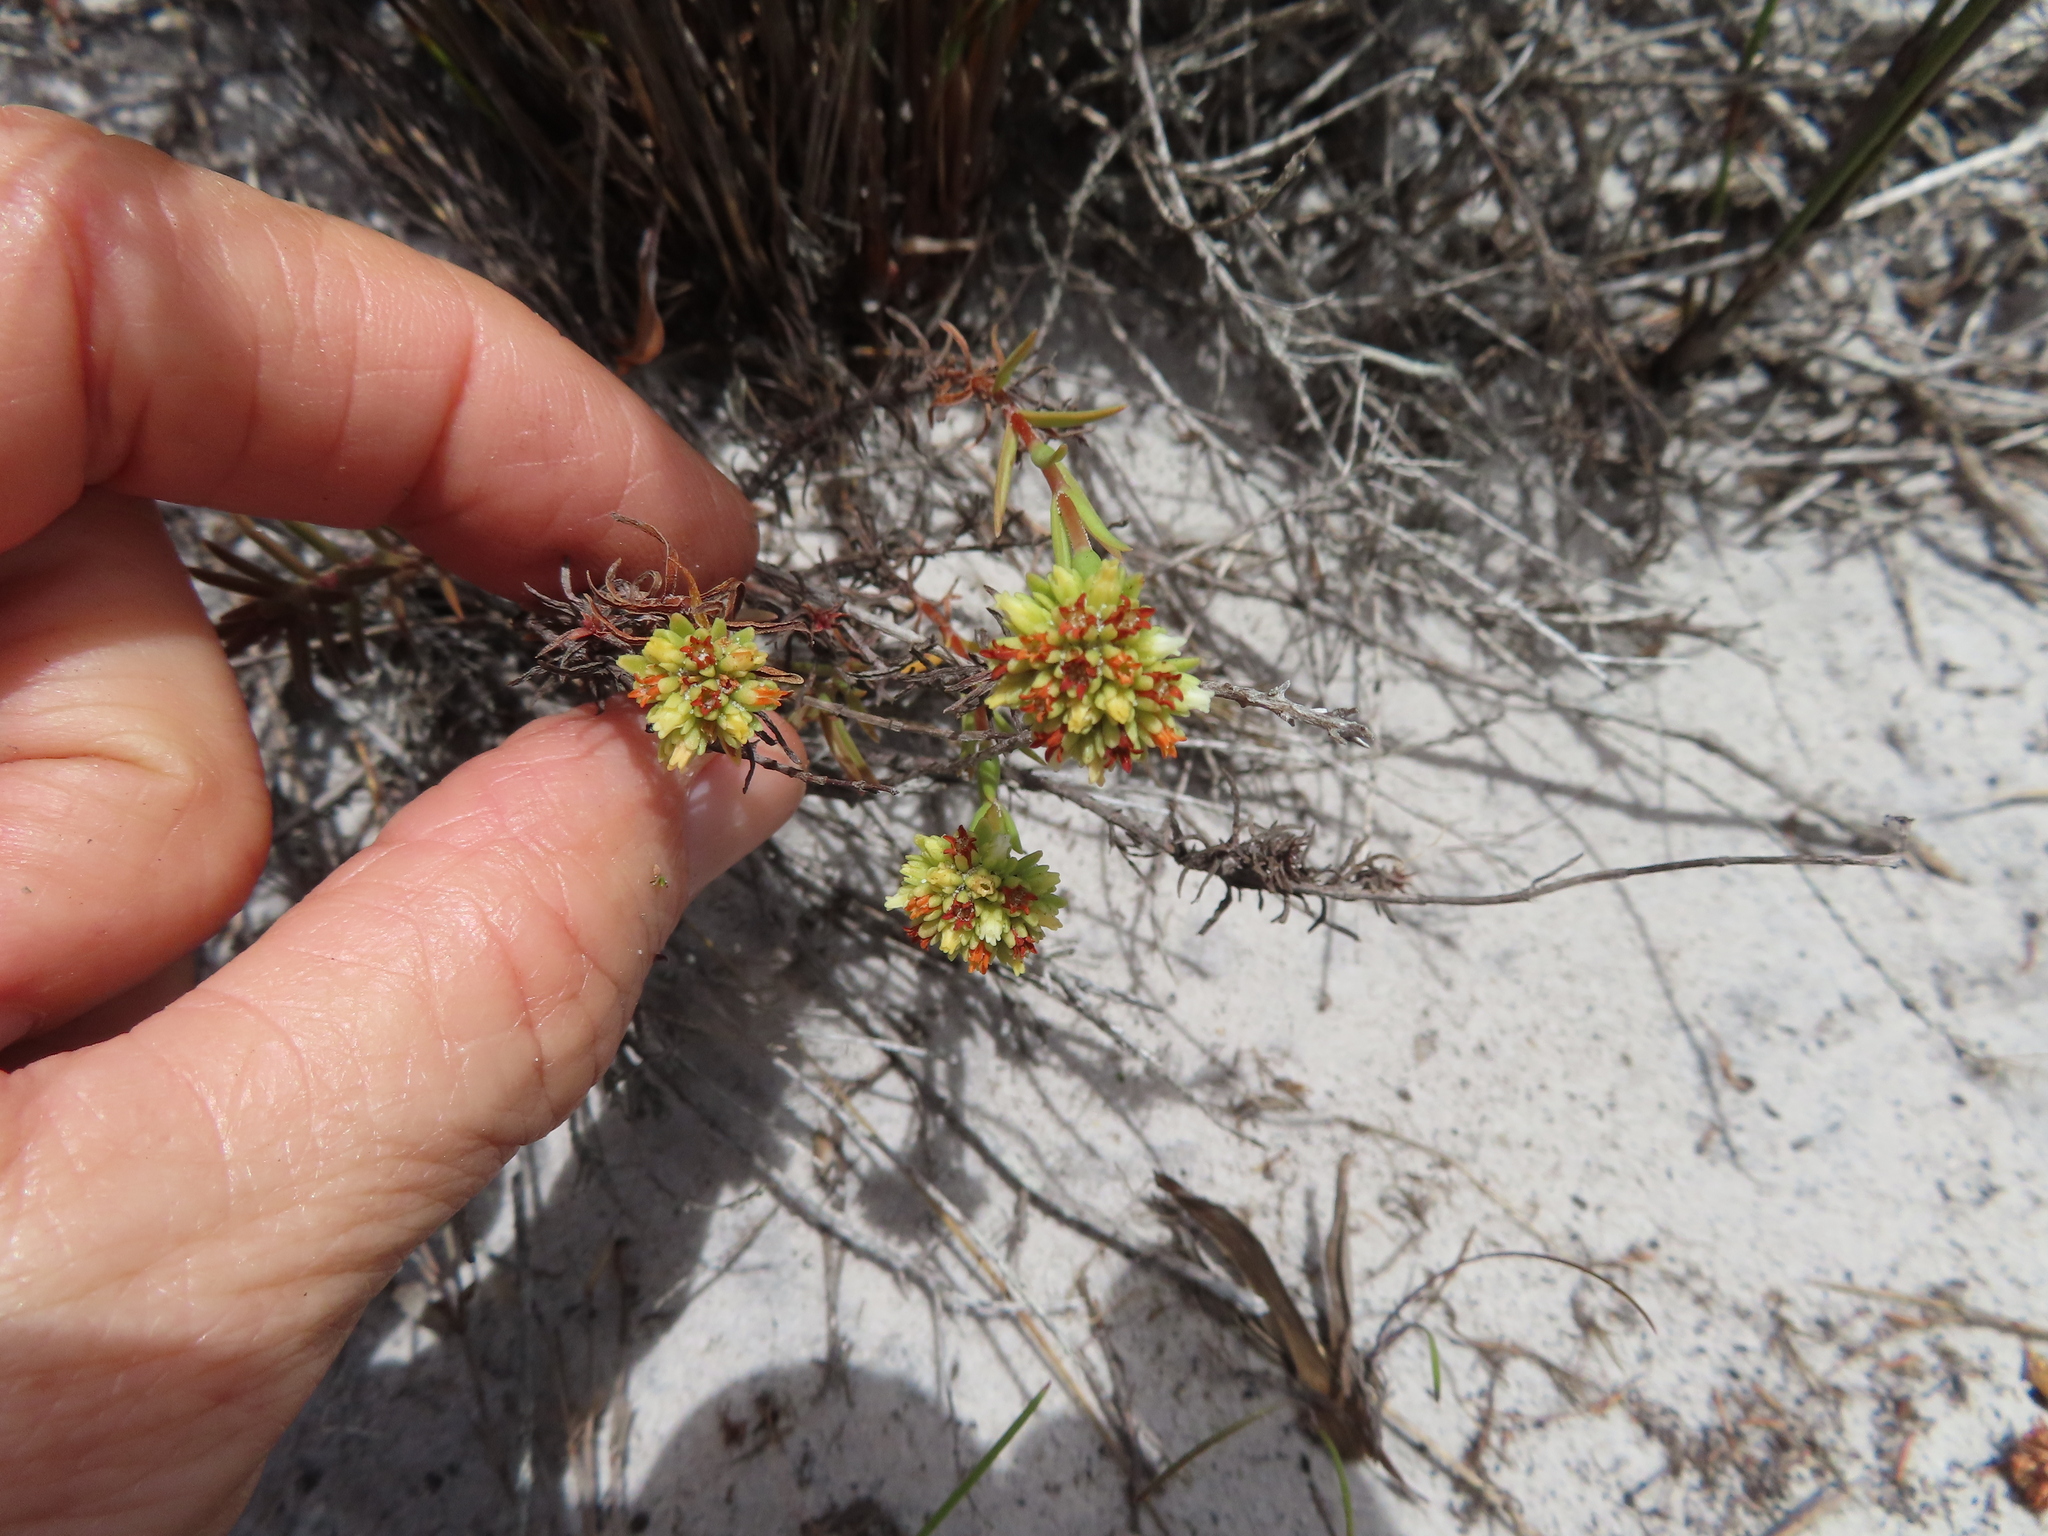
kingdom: Plantae
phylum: Tracheophyta
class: Magnoliopsida
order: Saxifragales
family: Crassulaceae
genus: Crassula
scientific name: Crassula subulata
